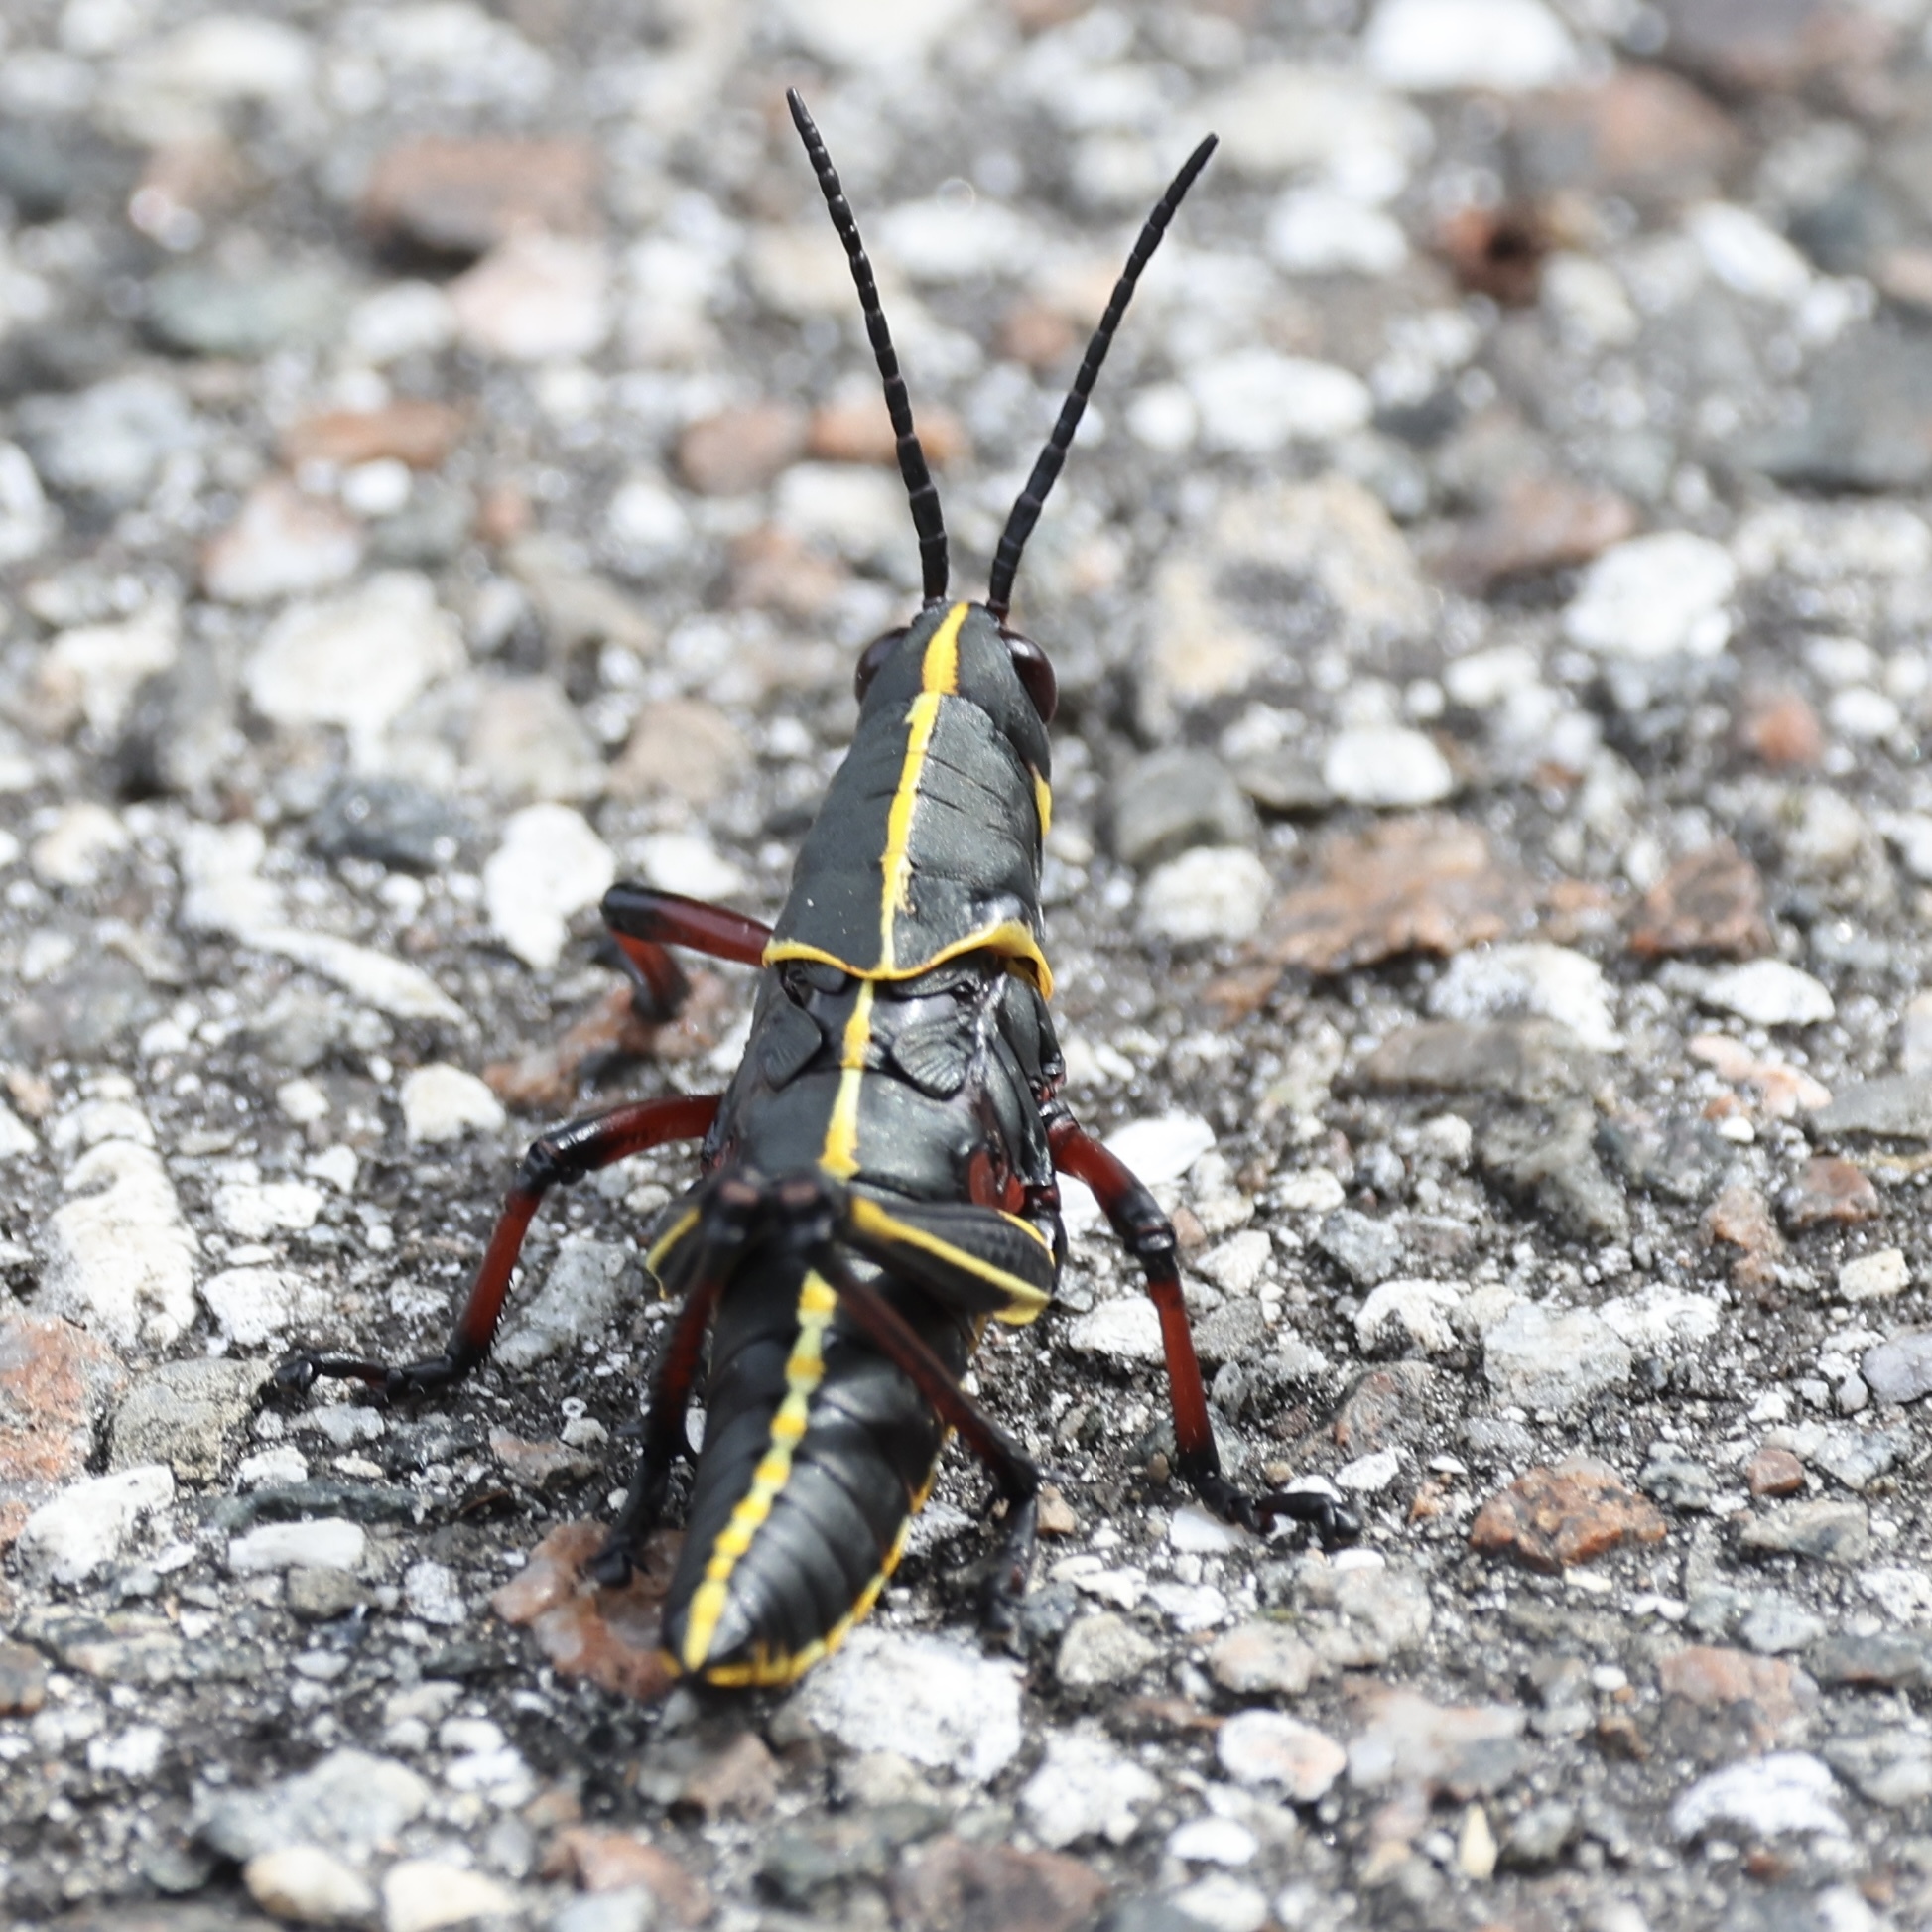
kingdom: Animalia
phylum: Arthropoda
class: Insecta
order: Orthoptera
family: Romaleidae
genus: Romalea
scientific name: Romalea microptera
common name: Eastern lubber grasshopper
